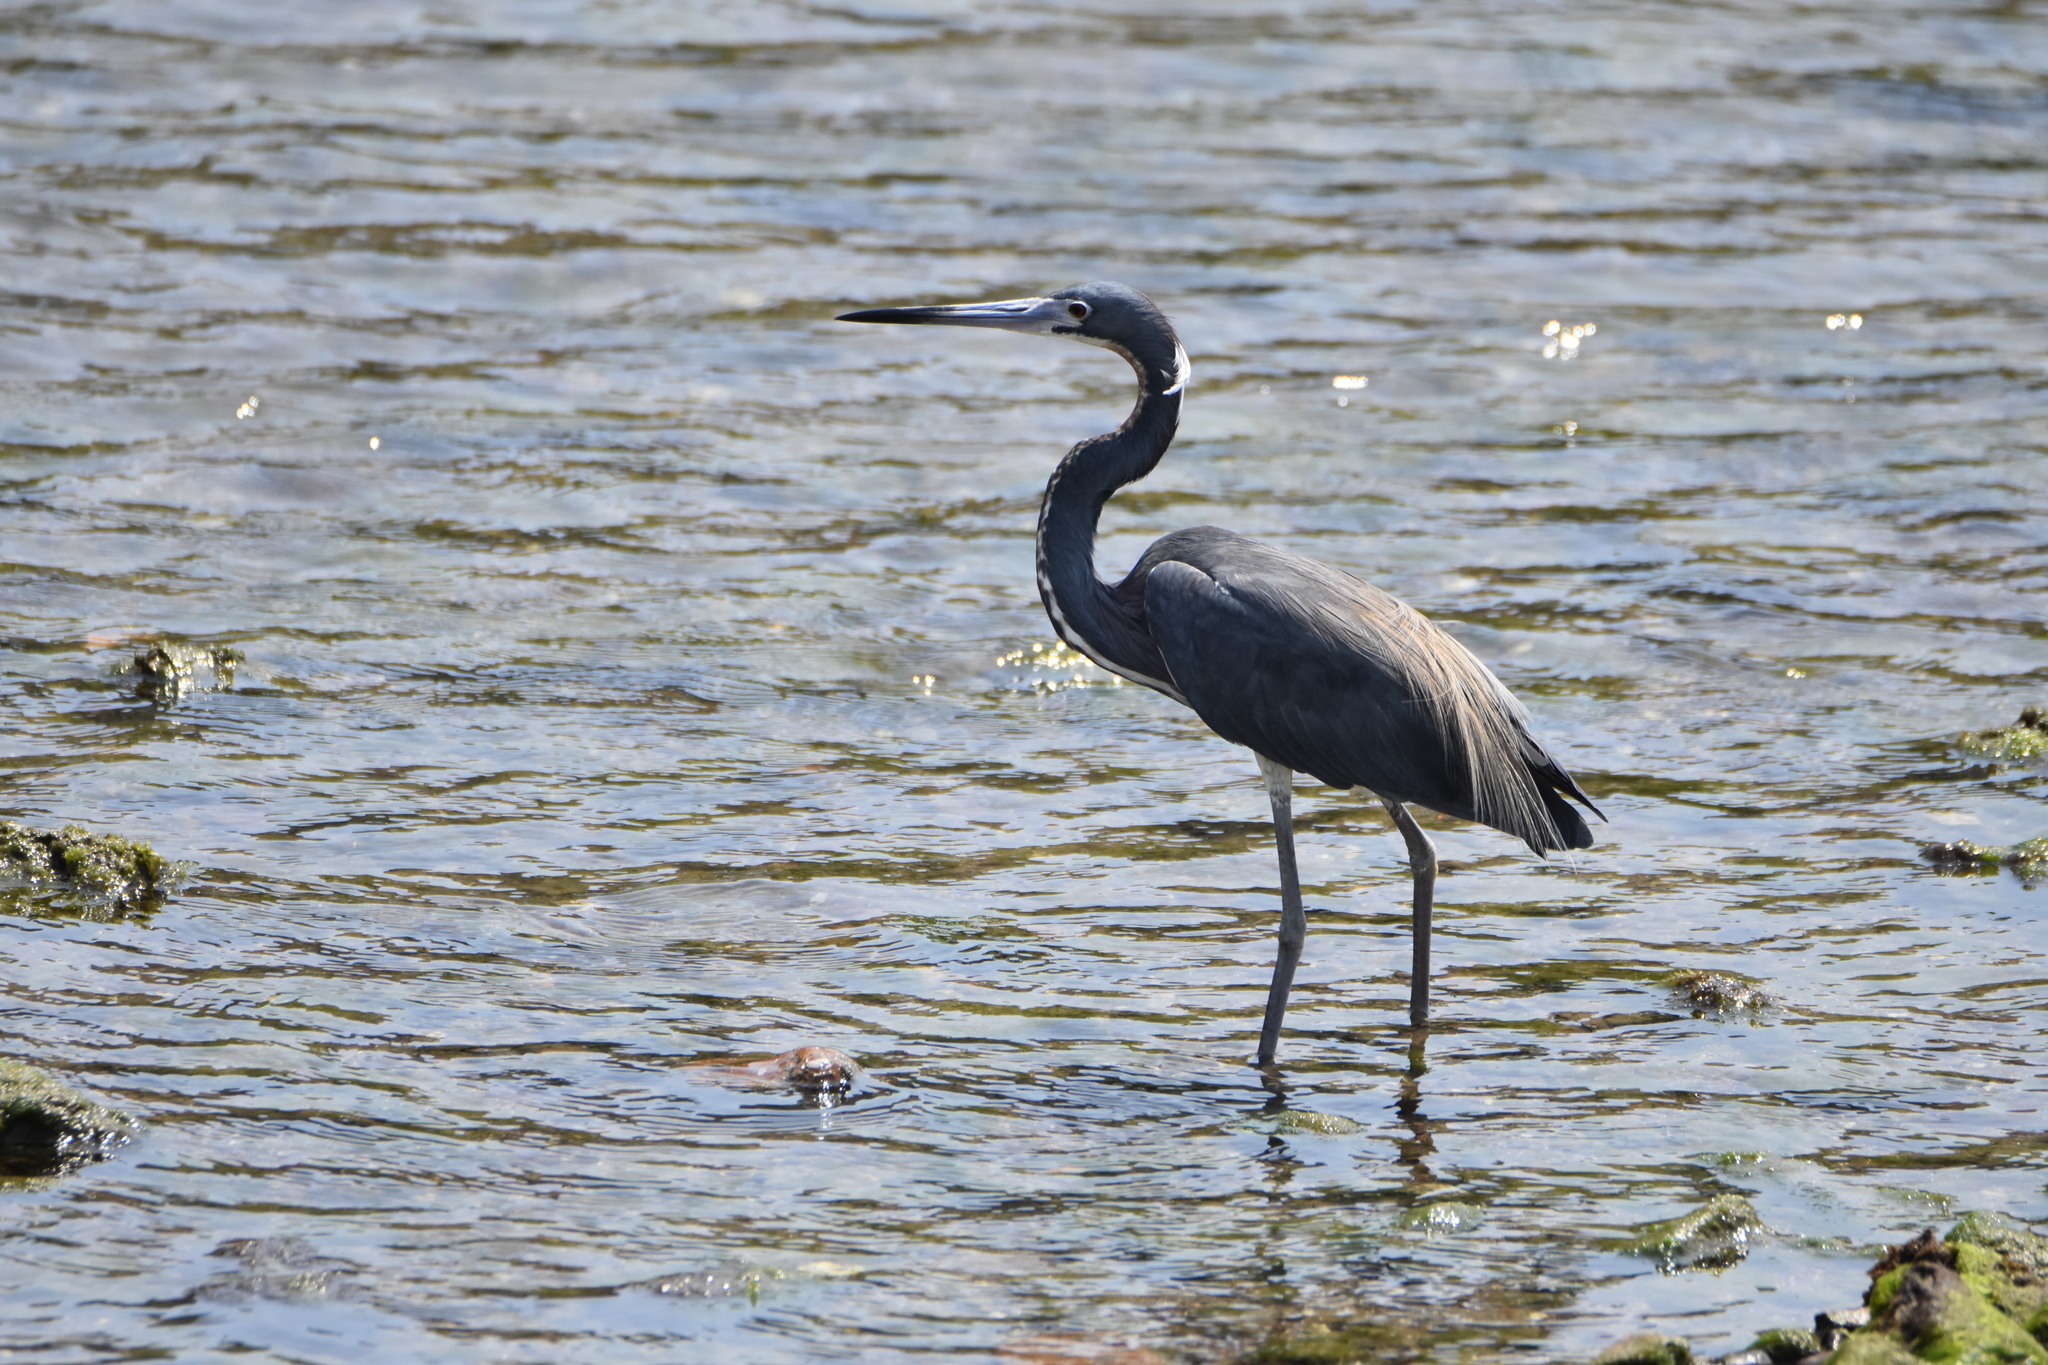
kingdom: Animalia
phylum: Chordata
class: Aves
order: Pelecaniformes
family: Ardeidae
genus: Egretta
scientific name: Egretta tricolor
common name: Tricolored heron
